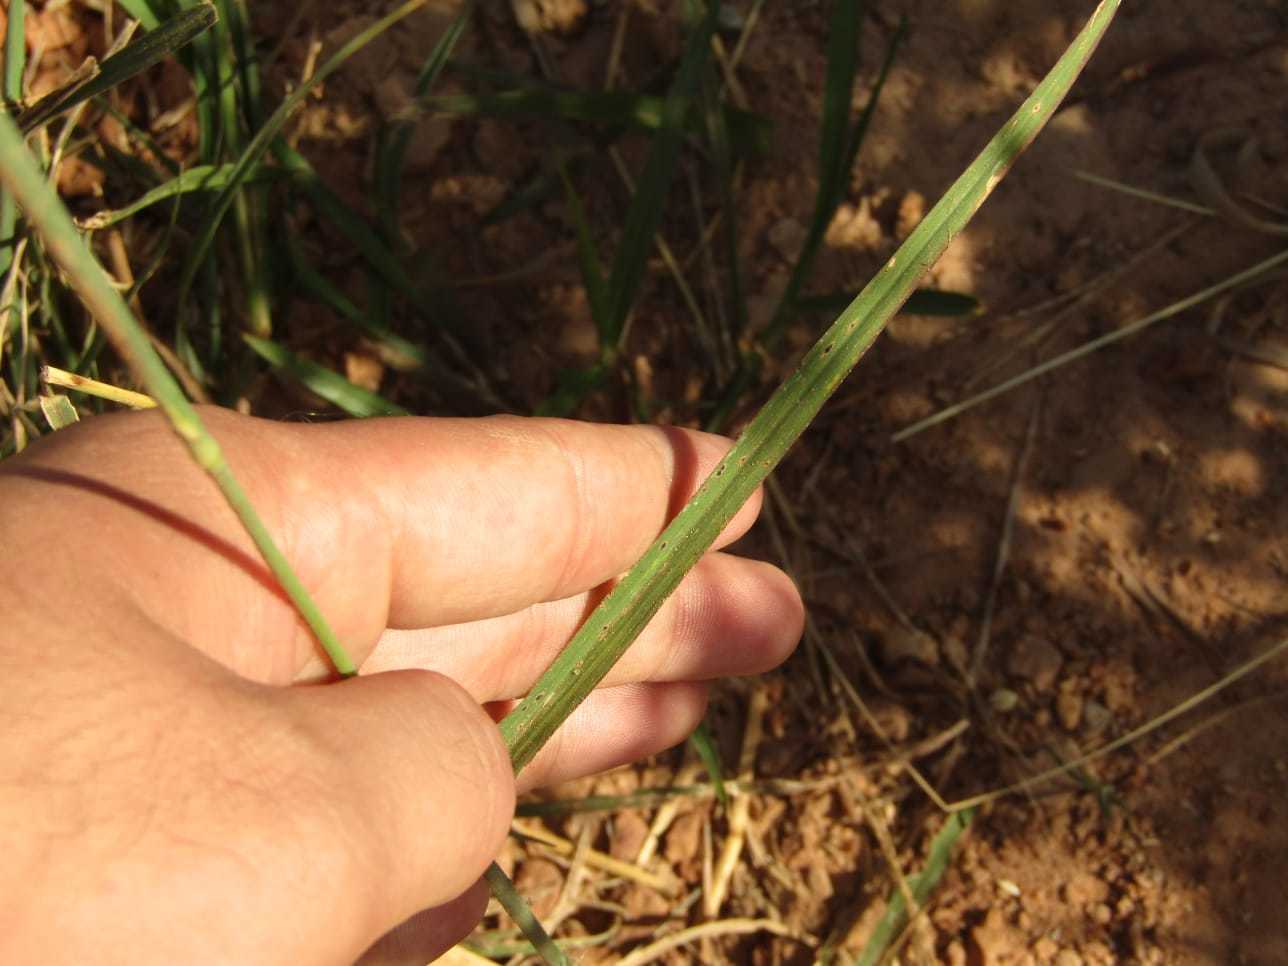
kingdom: Plantae
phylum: Tracheophyta
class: Liliopsida
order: Poales
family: Poaceae
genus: Chloris
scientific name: Chloris barbata
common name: Swollen fingergrass
